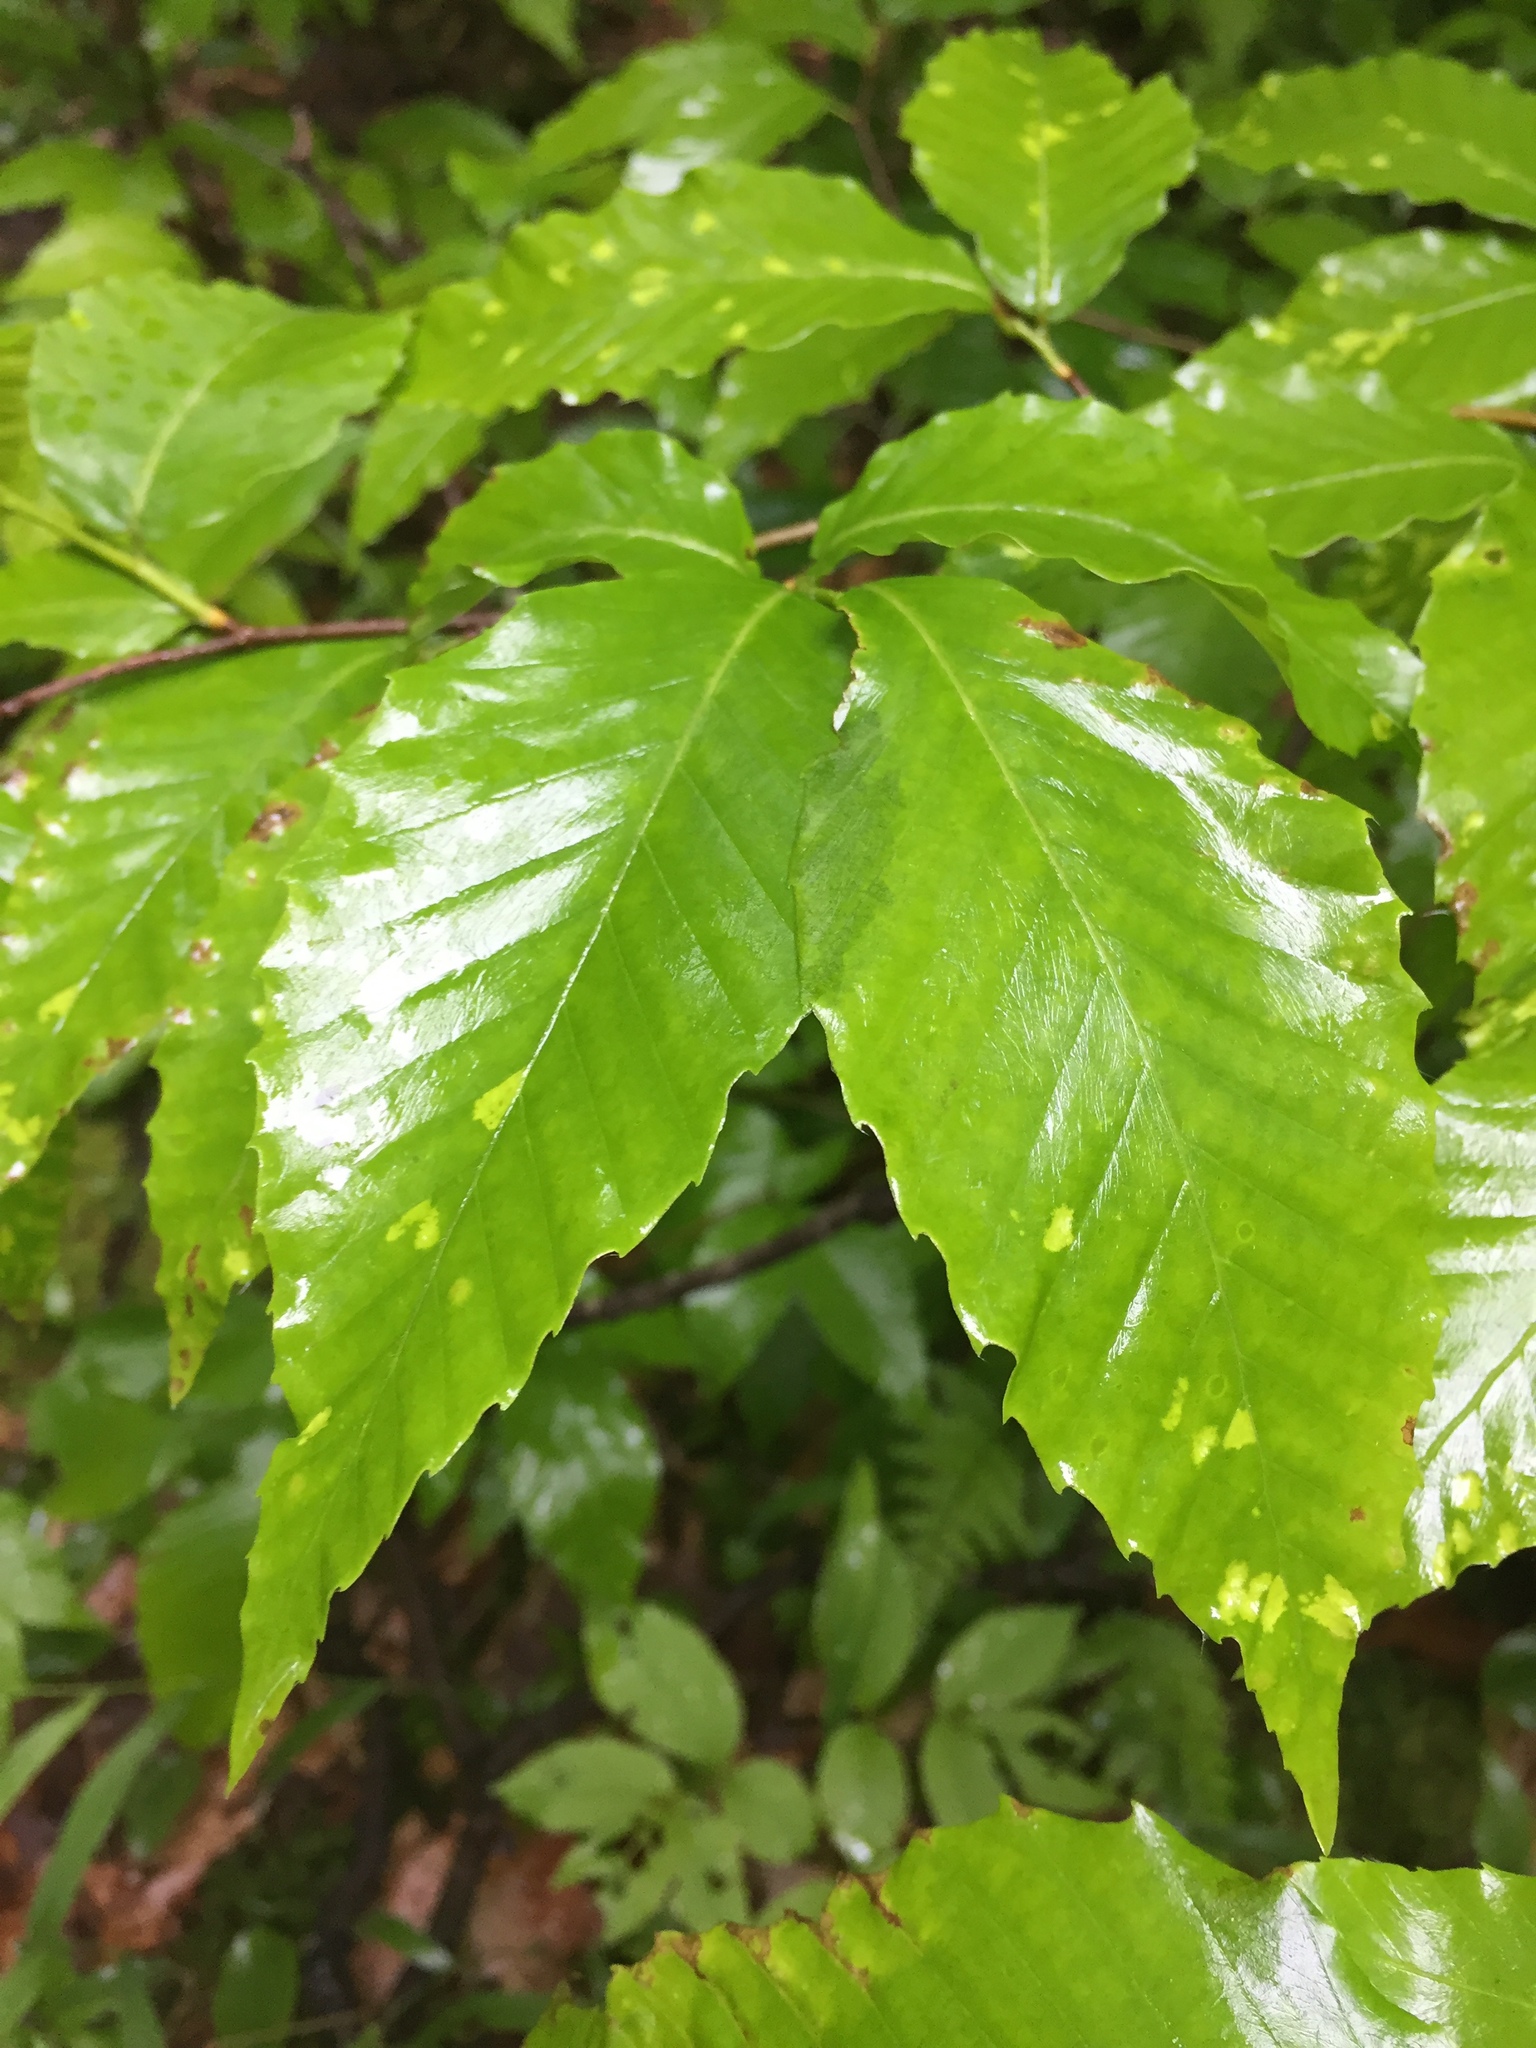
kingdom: Plantae
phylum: Tracheophyta
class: Magnoliopsida
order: Fagales
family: Fagaceae
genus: Fagus
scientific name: Fagus grandifolia
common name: American beech
